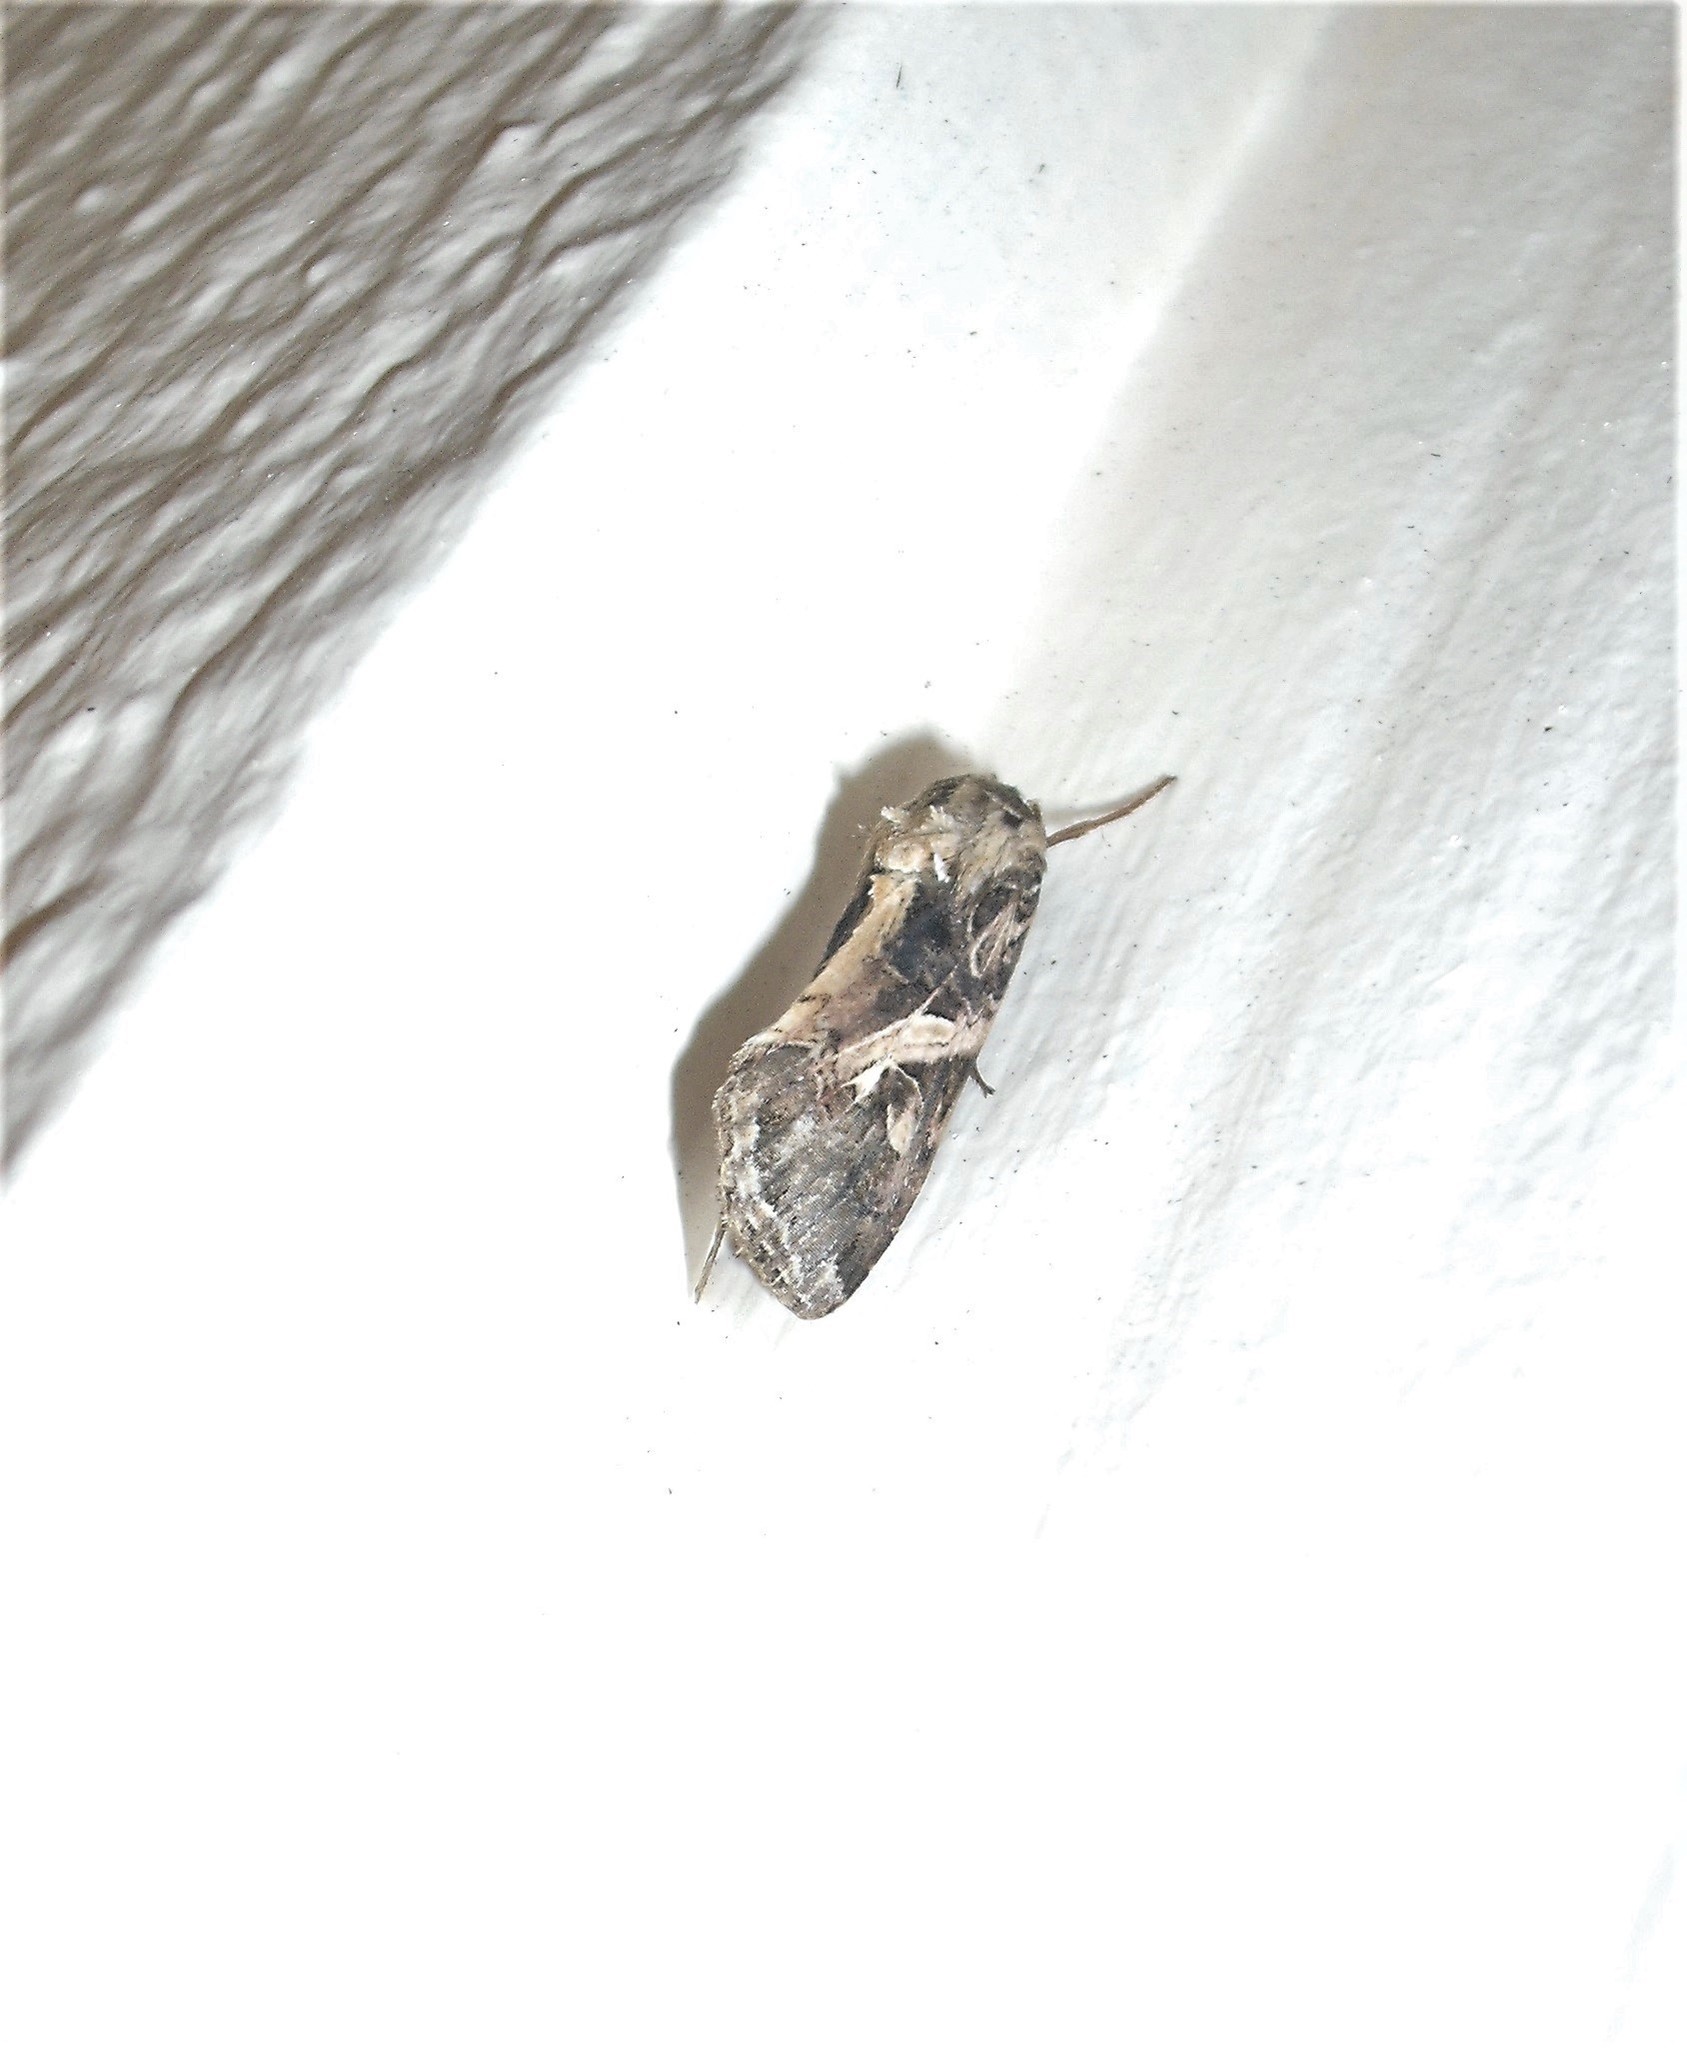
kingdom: Animalia
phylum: Arthropoda
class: Insecta
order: Lepidoptera
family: Noctuidae
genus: Spodoptera
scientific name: Spodoptera litura
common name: Asian cotton leafworm
